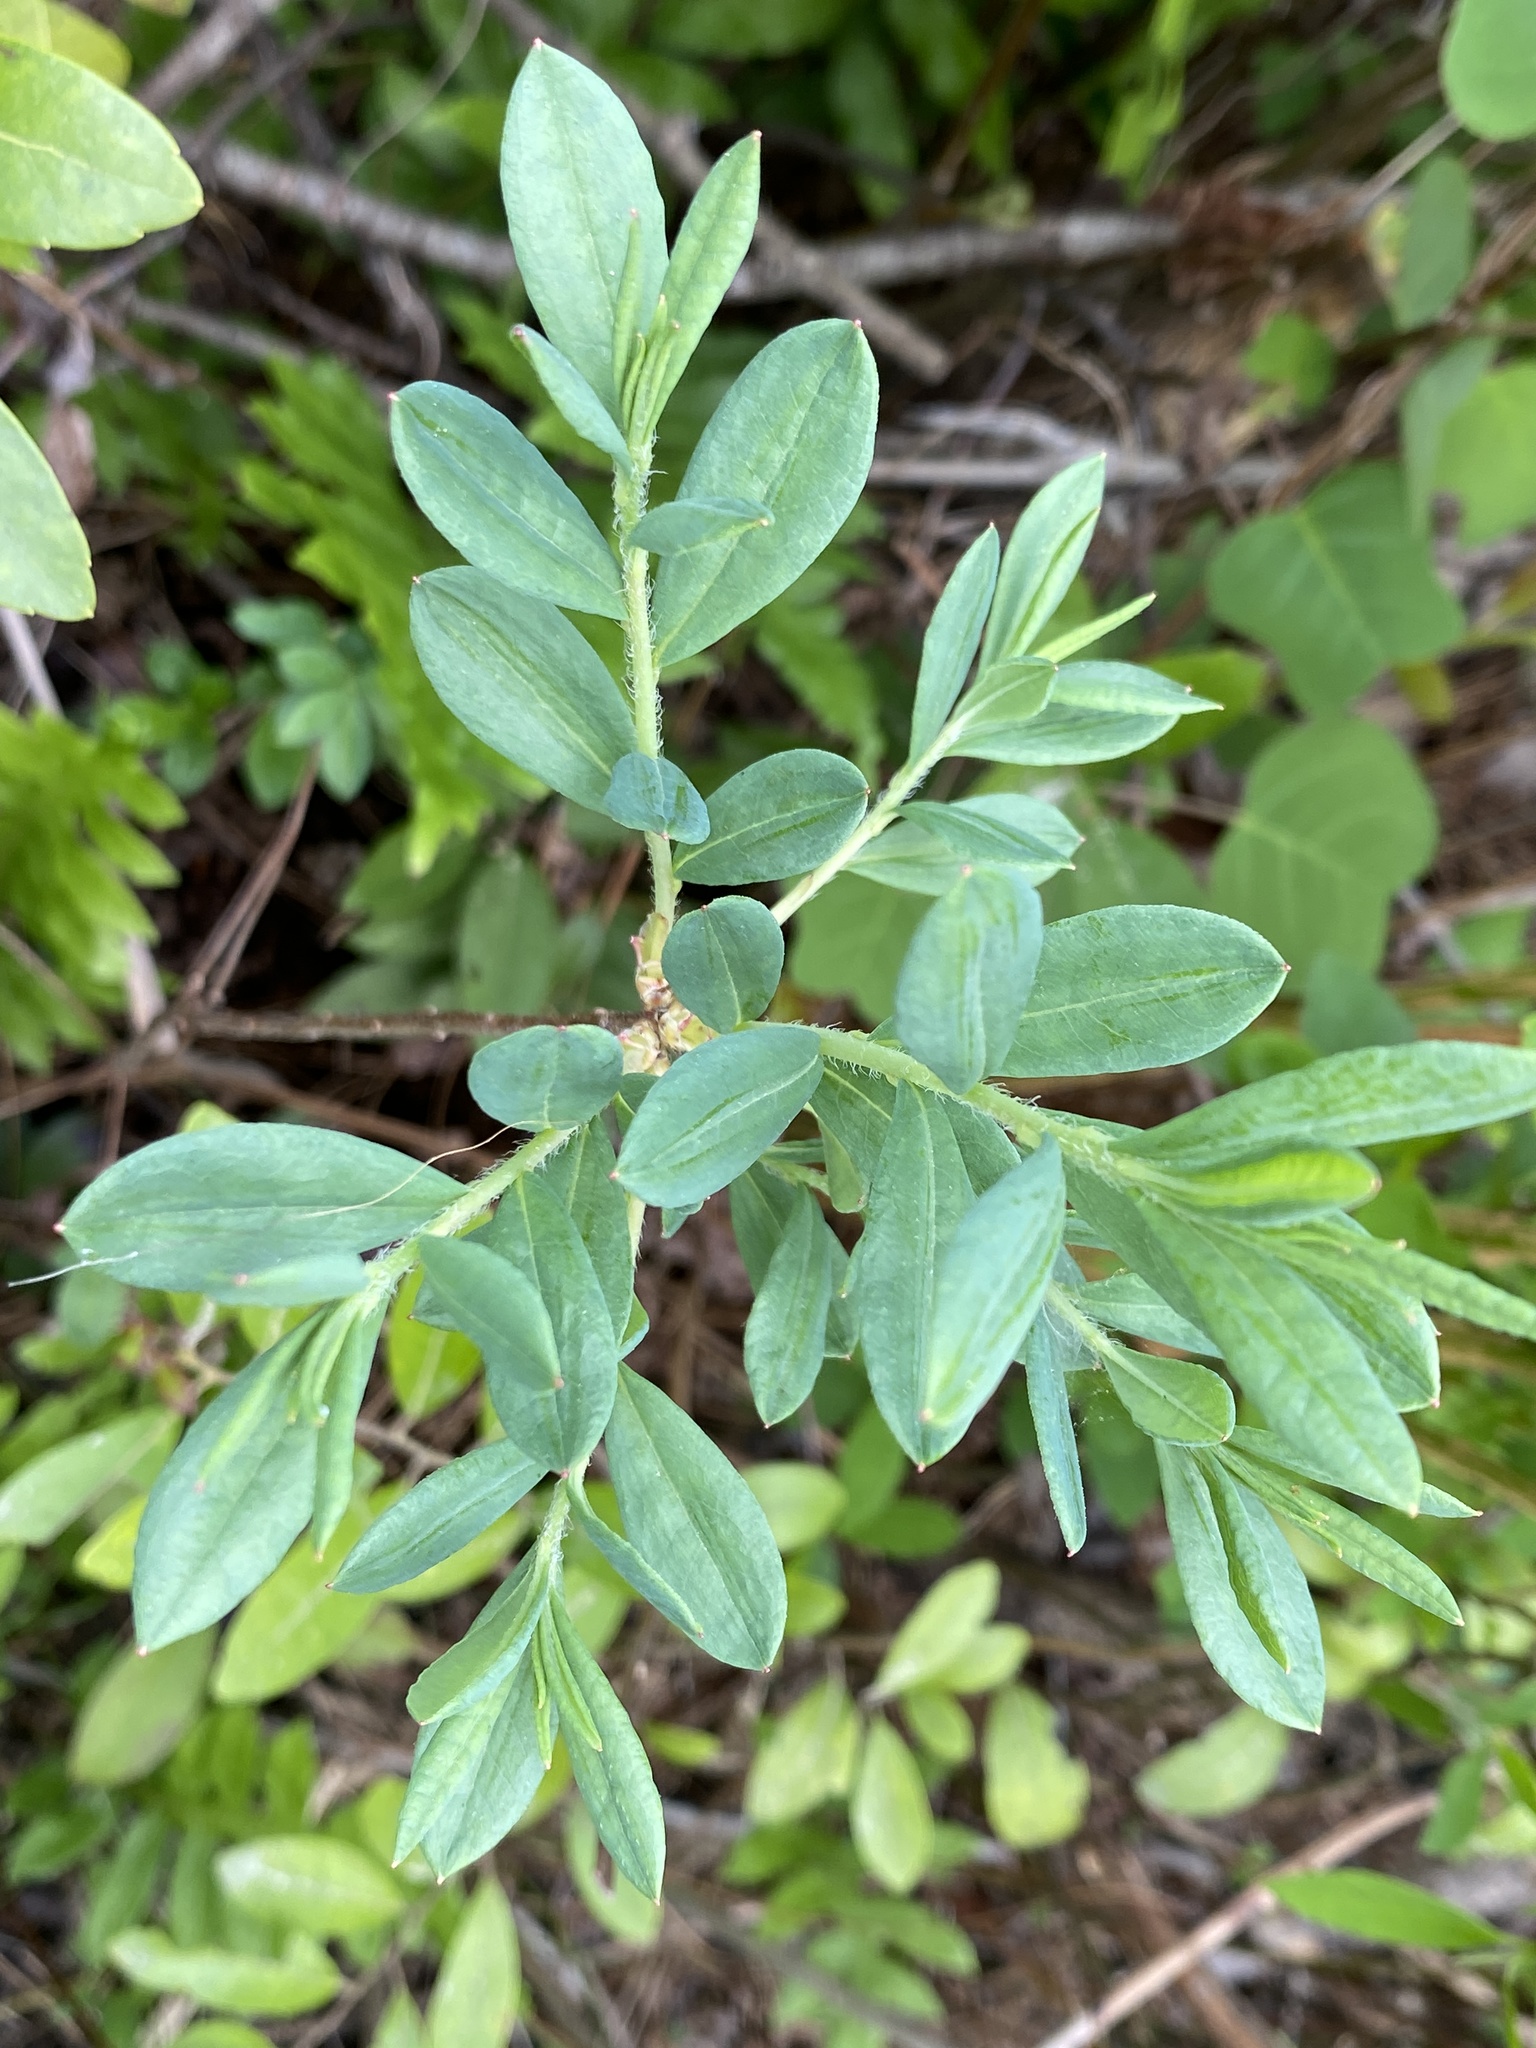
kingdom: Plantae
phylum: Tracheophyta
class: Magnoliopsida
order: Ericales
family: Ericaceae
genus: Kalmia
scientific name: Kalmia cuneata
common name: White wicky
